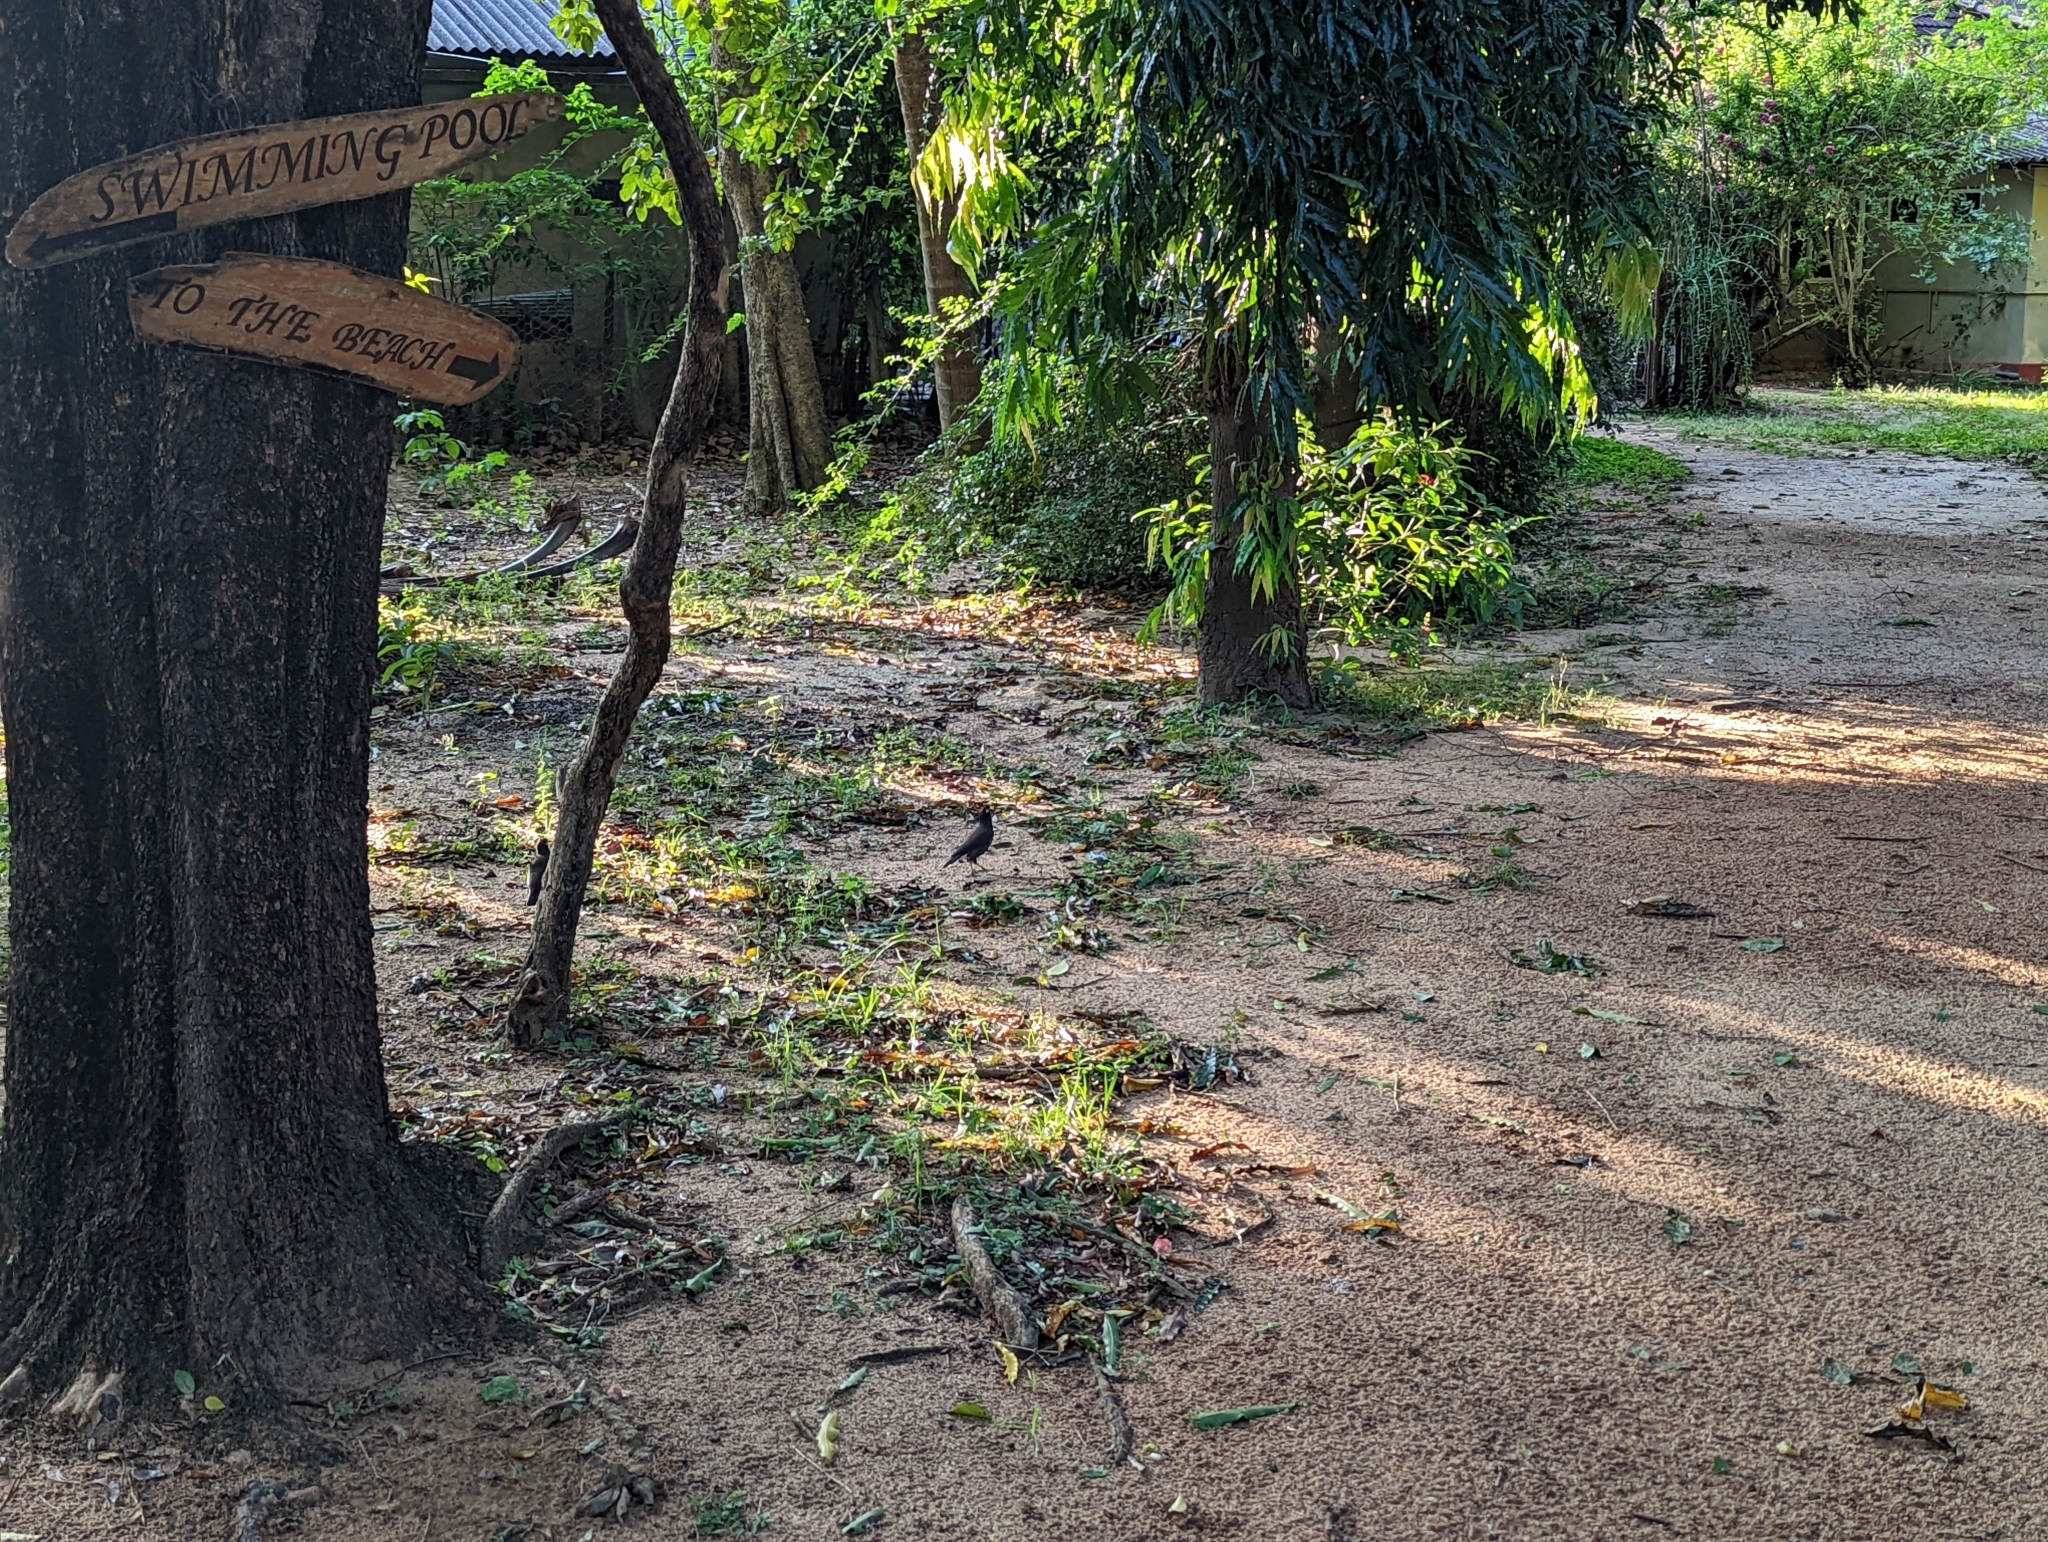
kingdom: Animalia
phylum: Chordata
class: Aves
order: Passeriformes
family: Sturnidae
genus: Acridotheres
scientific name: Acridotheres tristis
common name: Common myna
